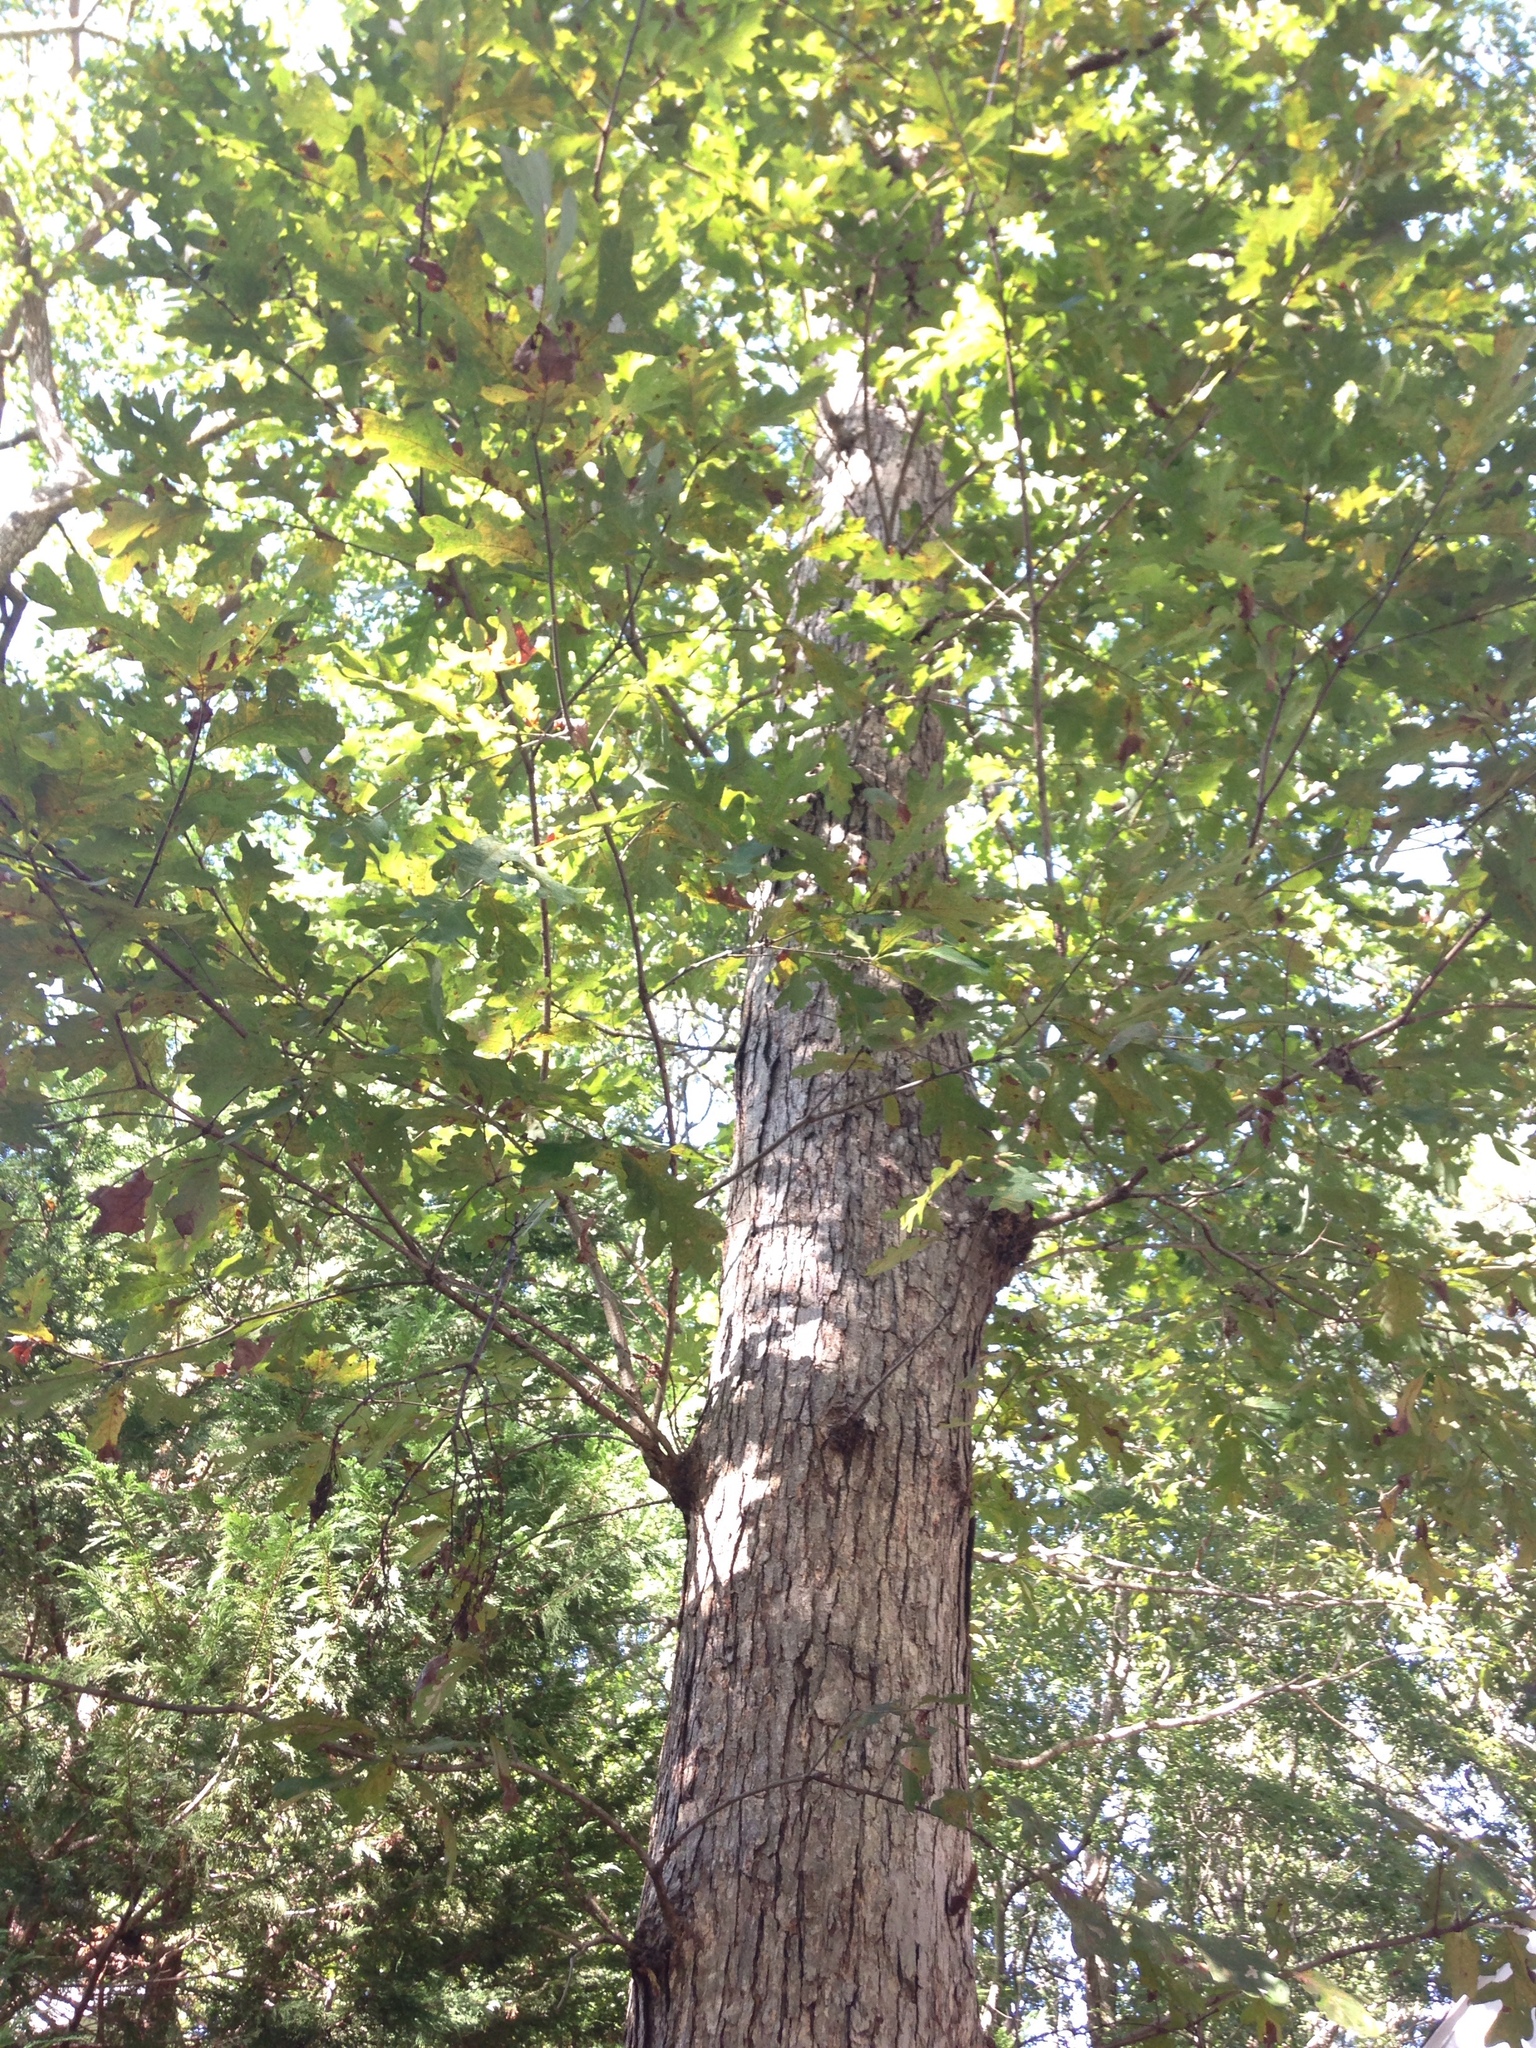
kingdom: Plantae
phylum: Tracheophyta
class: Magnoliopsida
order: Fagales
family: Fagaceae
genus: Quercus
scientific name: Quercus alba
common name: White oak
